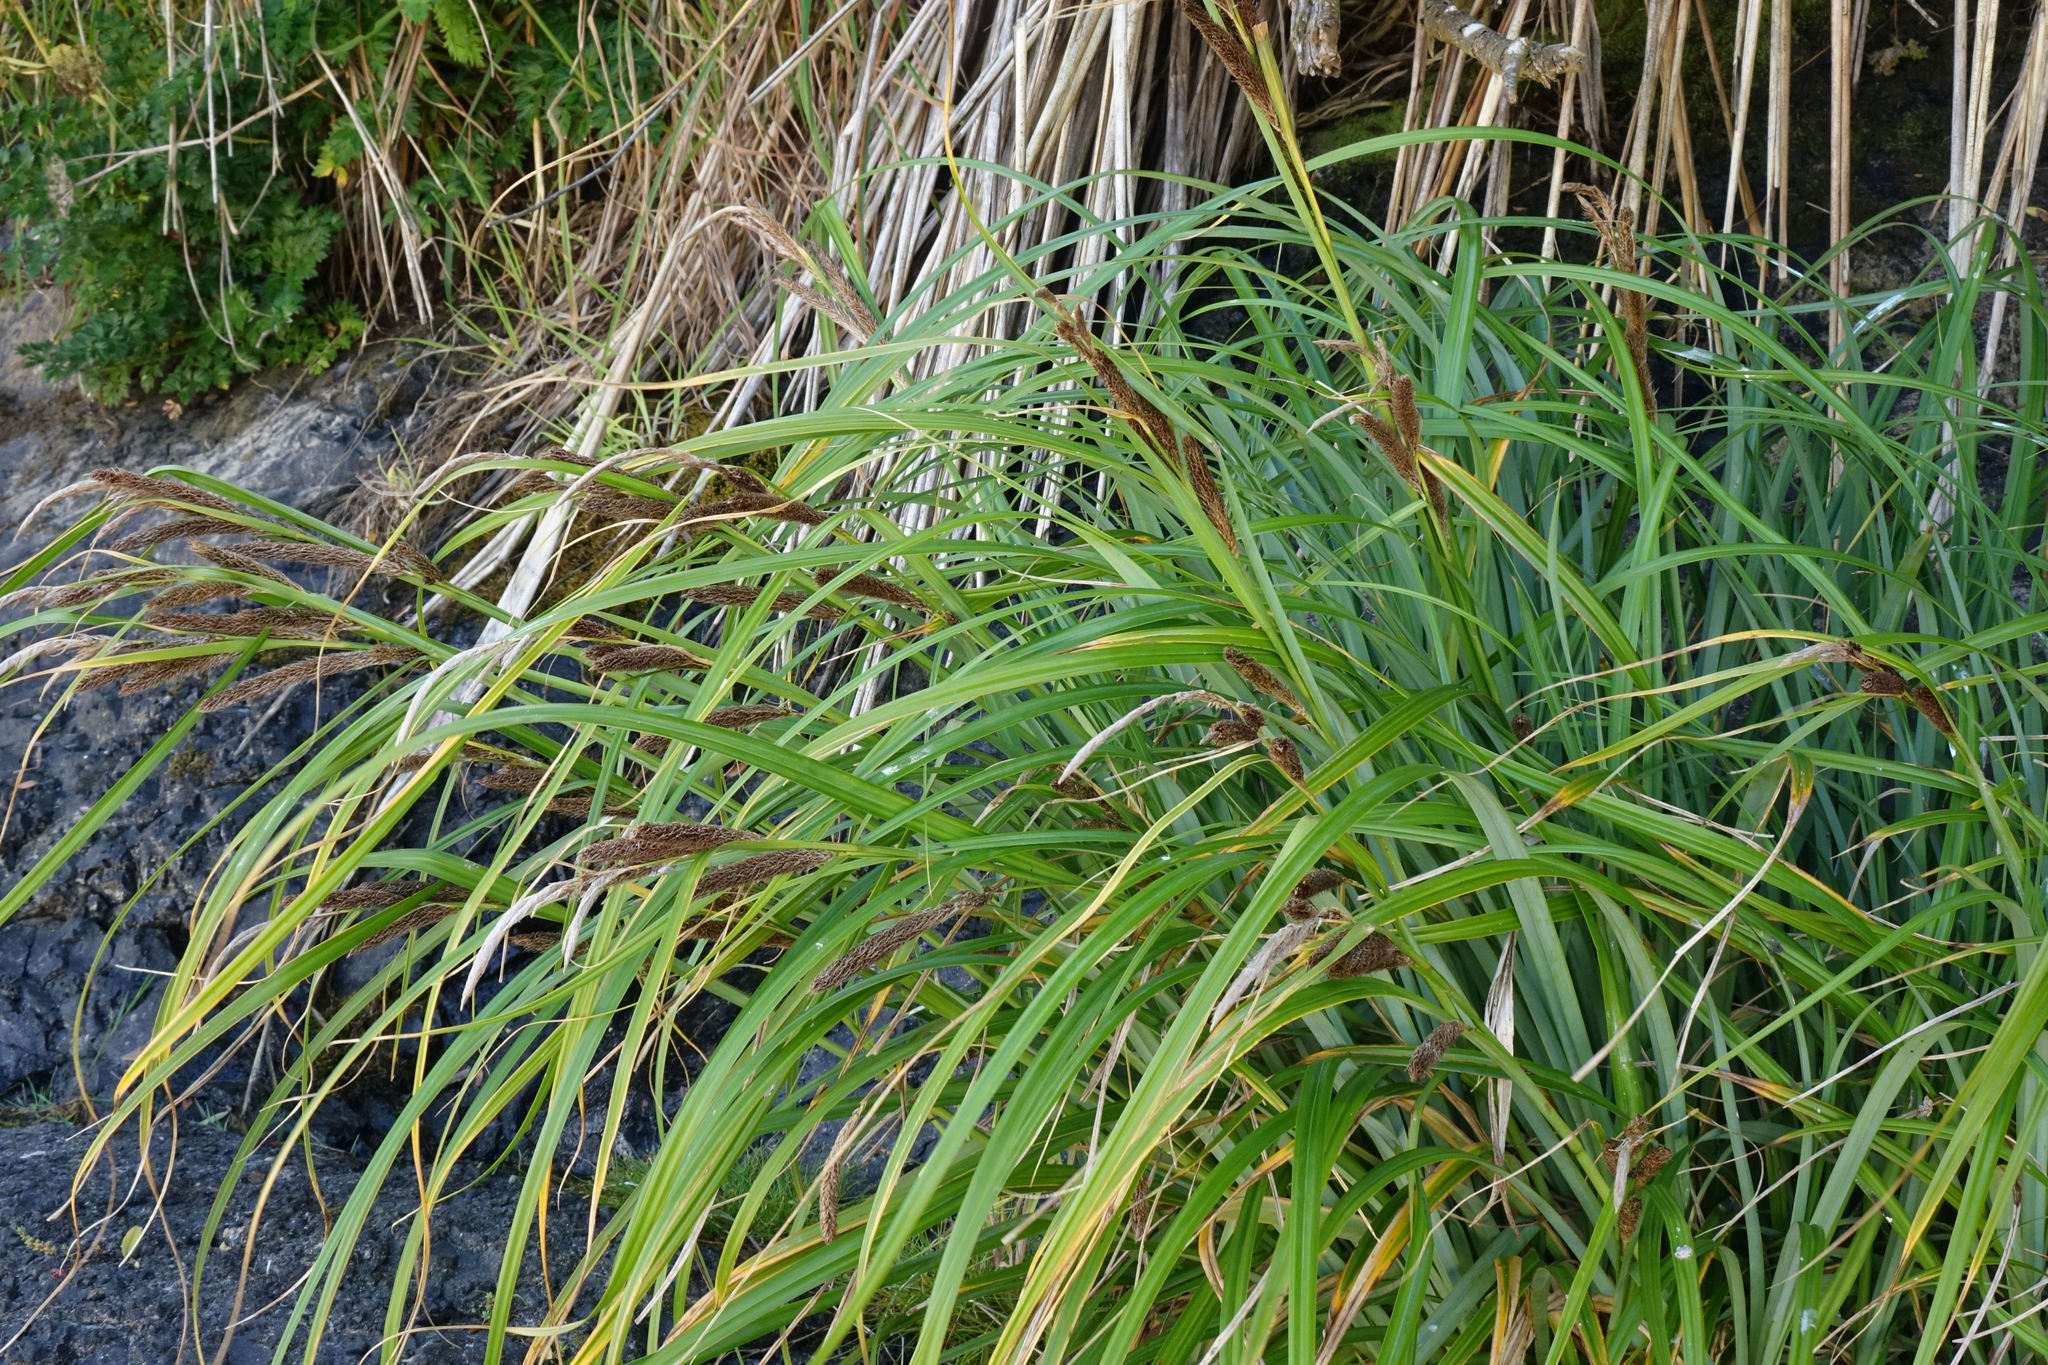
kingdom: Plantae
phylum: Tracheophyta
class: Liliopsida
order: Poales
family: Cyperaceae
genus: Carex
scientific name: Carex trifida
